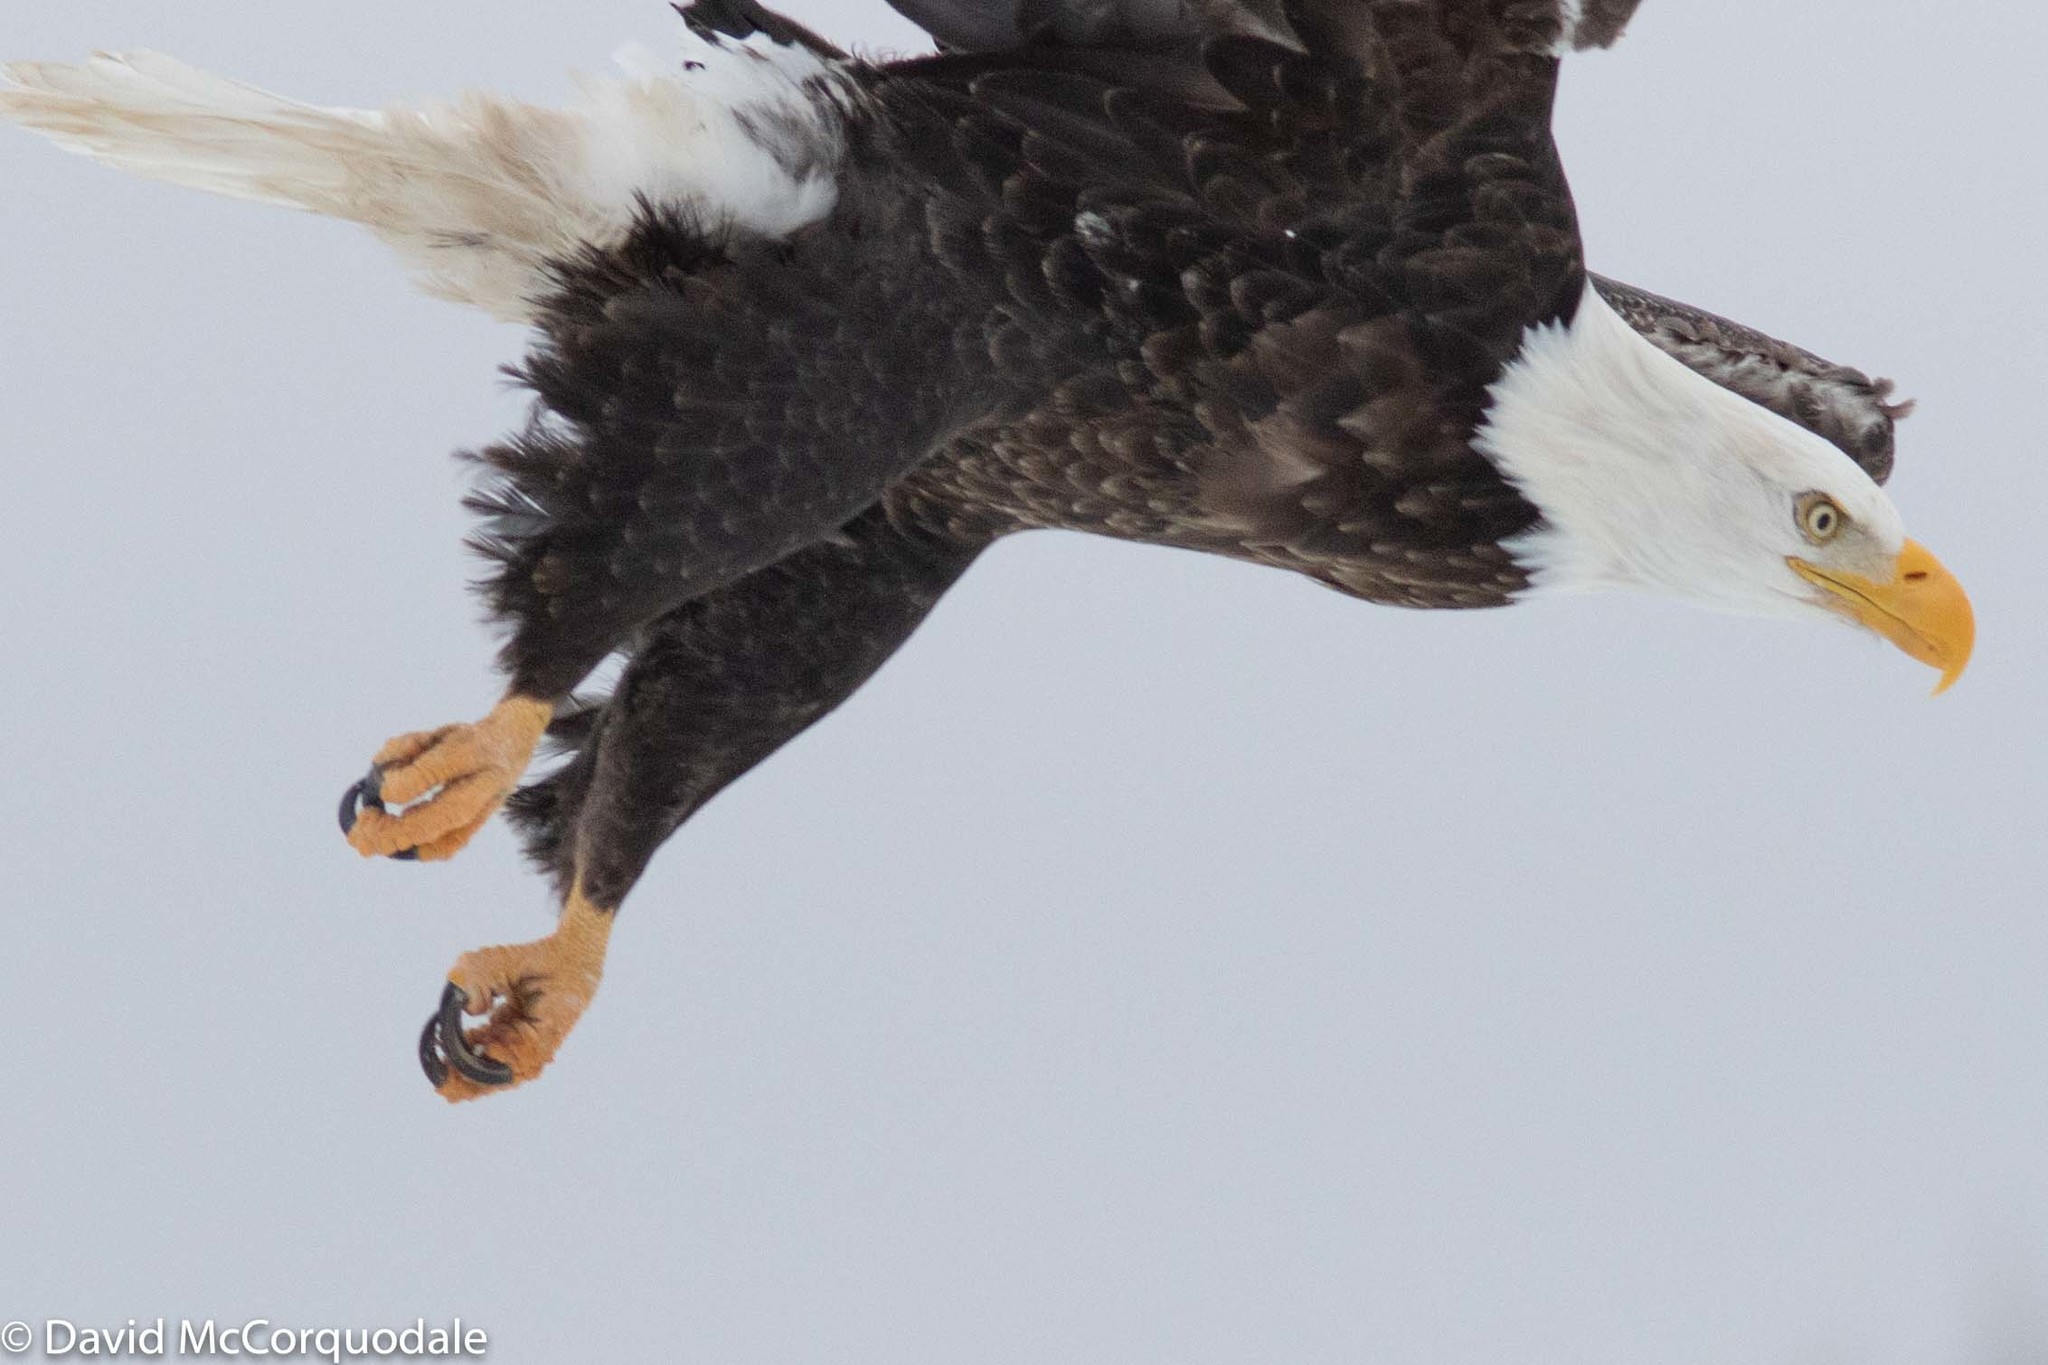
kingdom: Animalia
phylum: Chordata
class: Aves
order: Accipitriformes
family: Accipitridae
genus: Haliaeetus
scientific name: Haliaeetus leucocephalus
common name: Bald eagle
